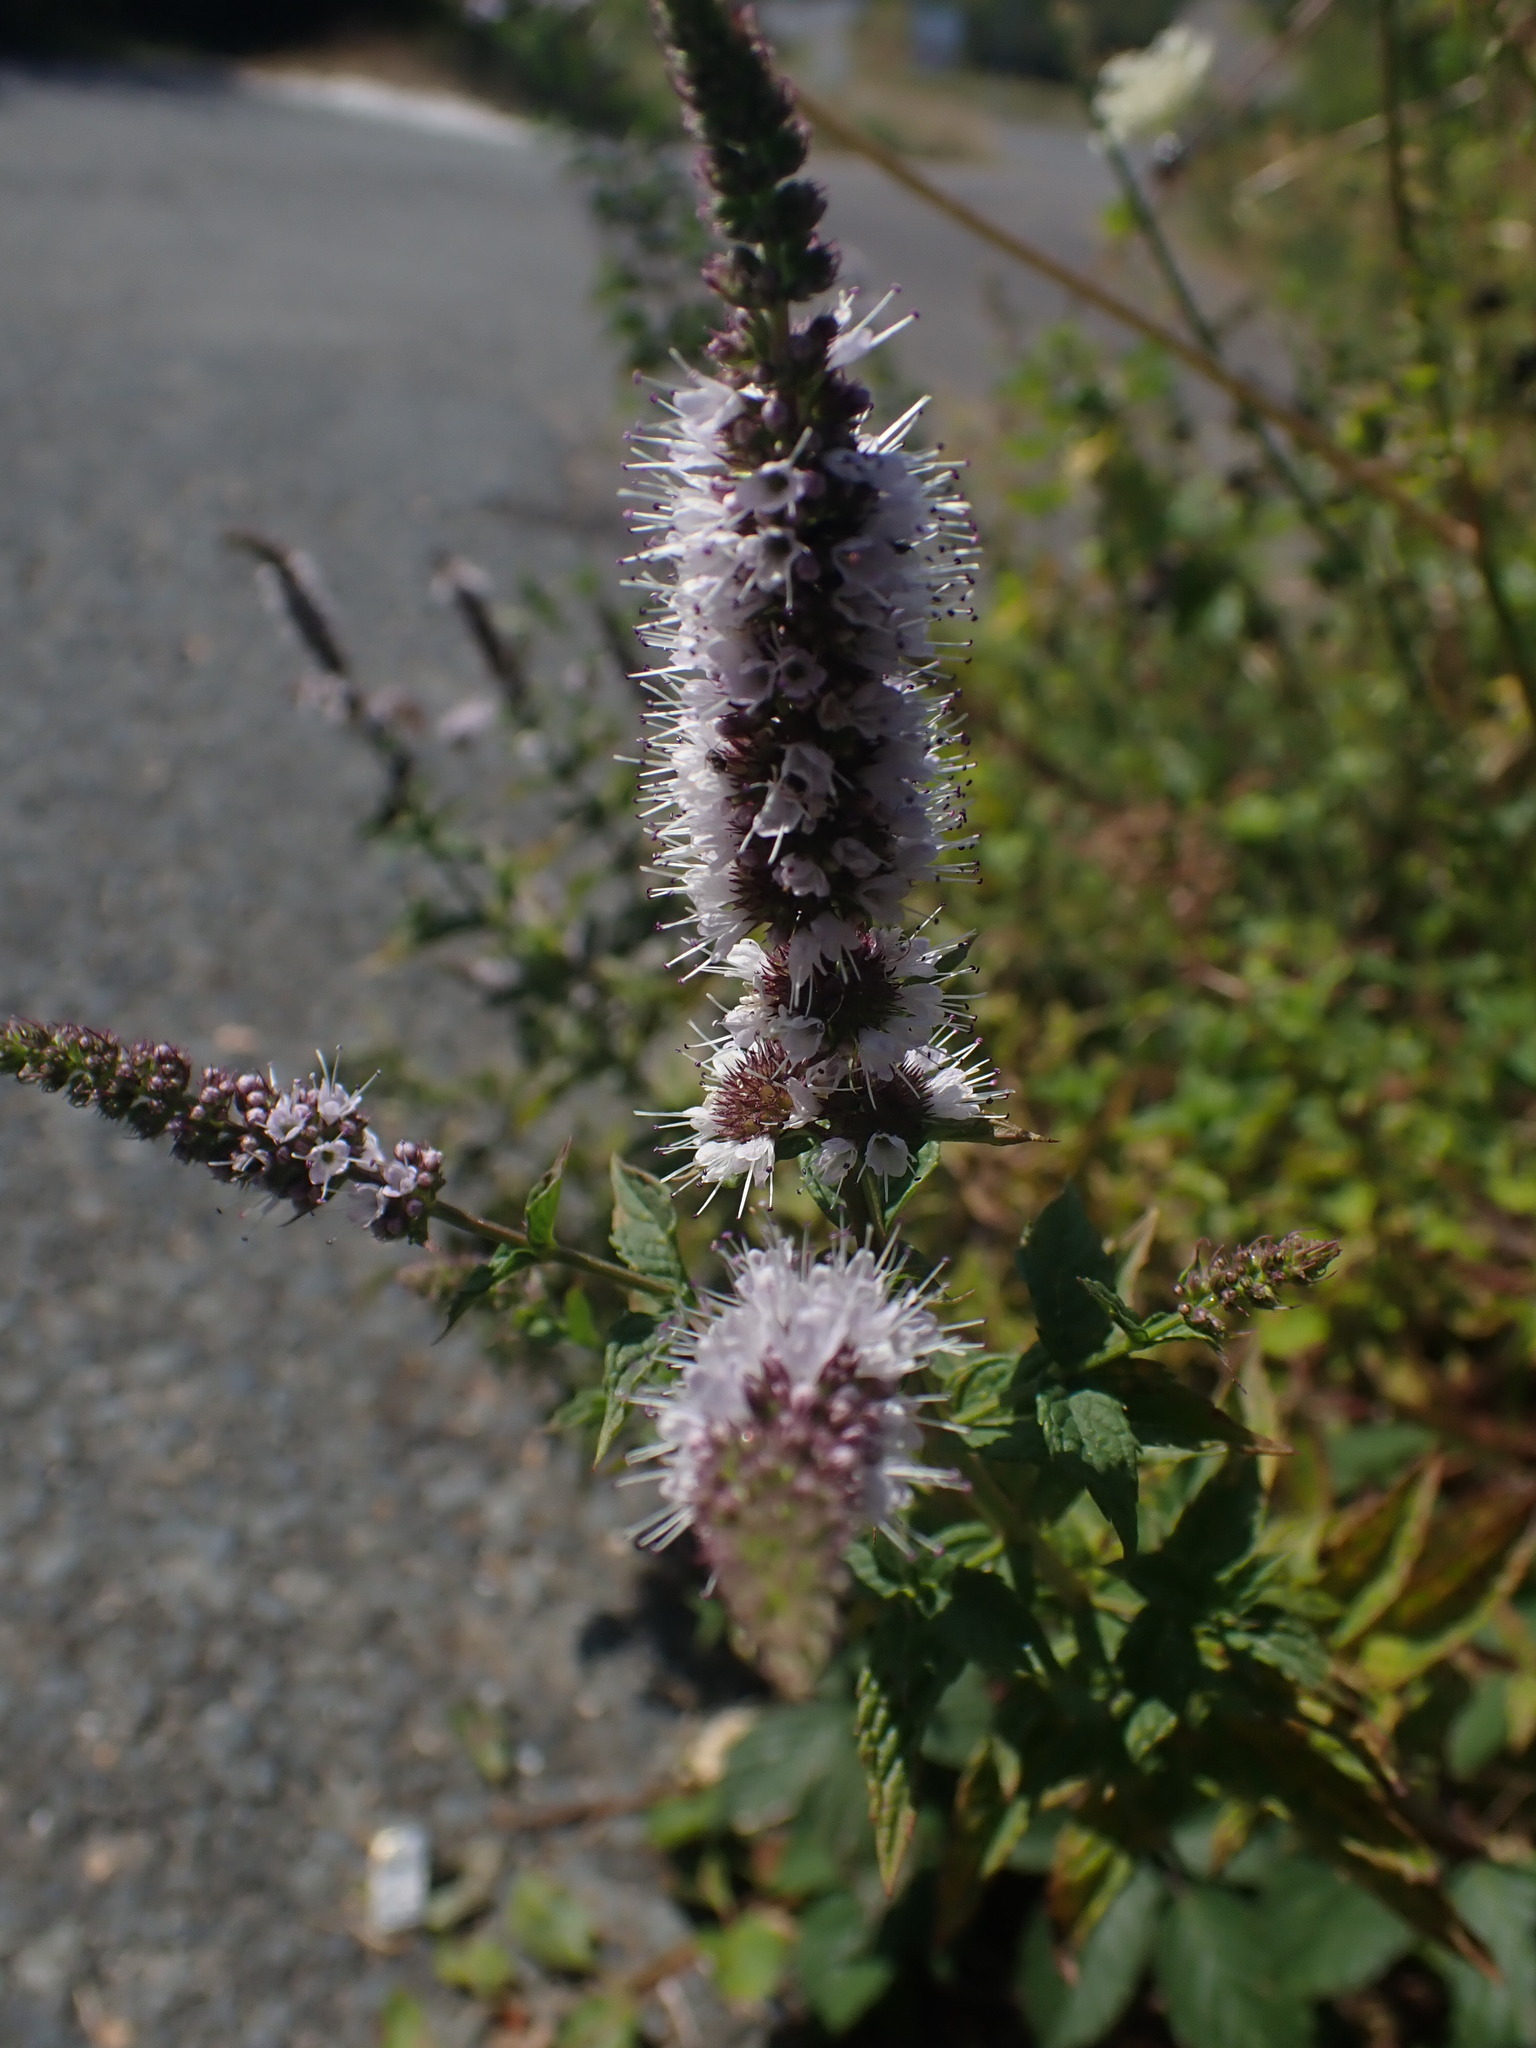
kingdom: Plantae
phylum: Tracheophyta
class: Magnoliopsida
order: Lamiales
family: Lamiaceae
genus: Mentha
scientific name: Mentha spicata
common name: Spearmint
